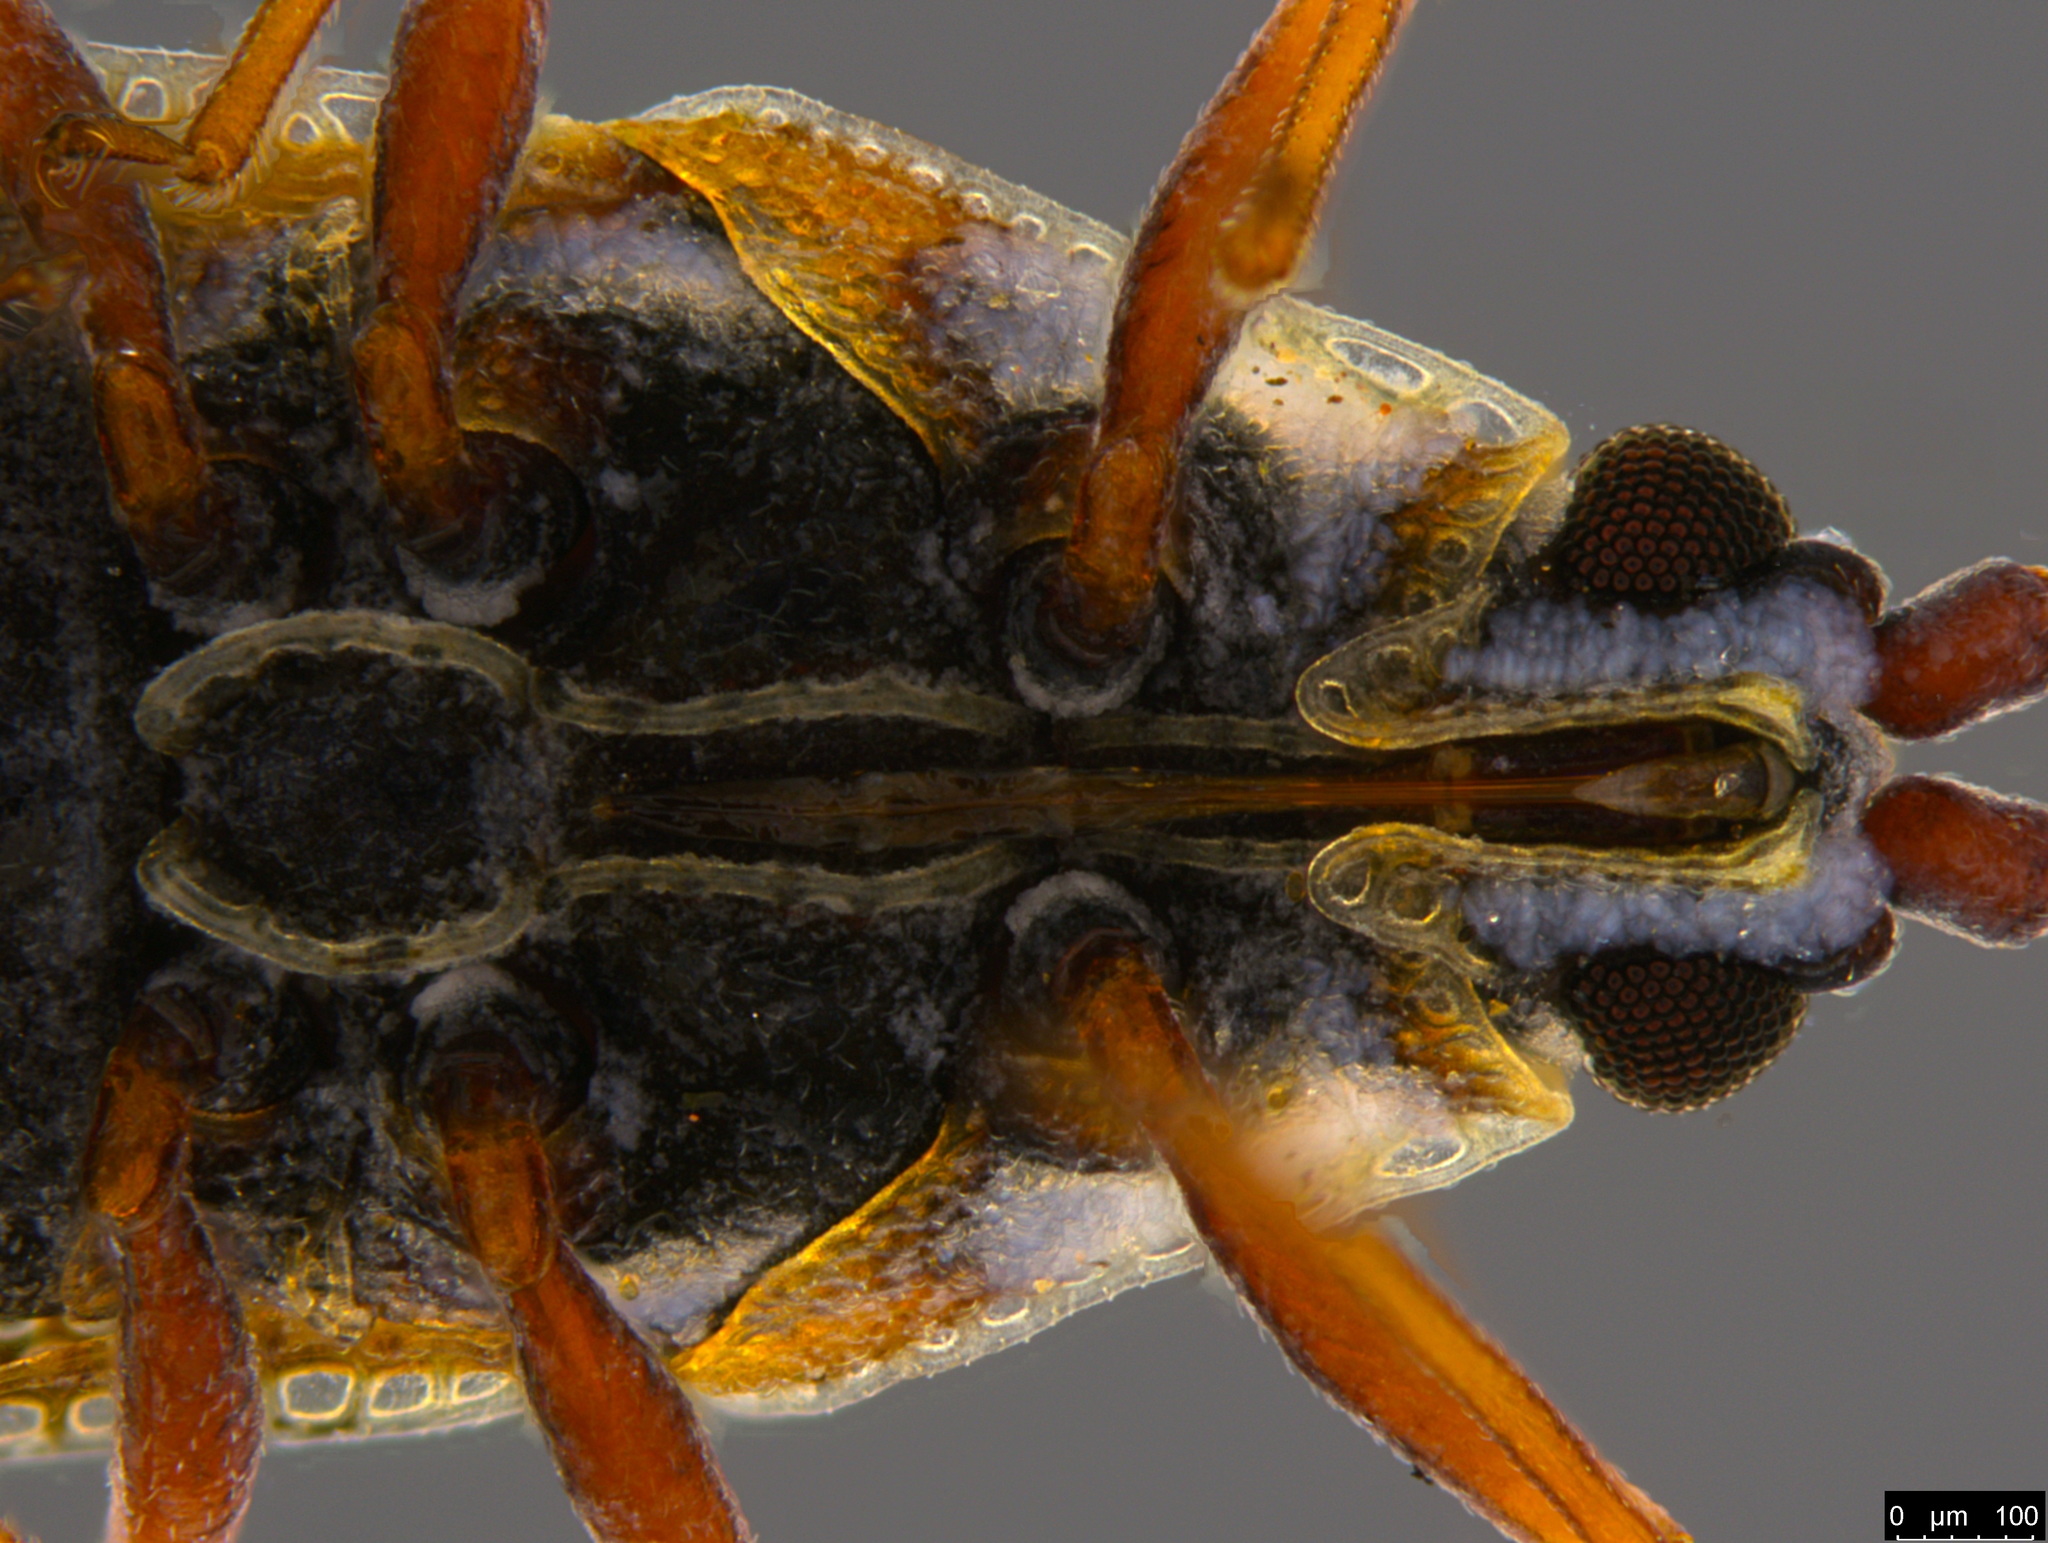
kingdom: Animalia
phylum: Arthropoda
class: Insecta
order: Hemiptera
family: Tingidae
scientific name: Tingidae
